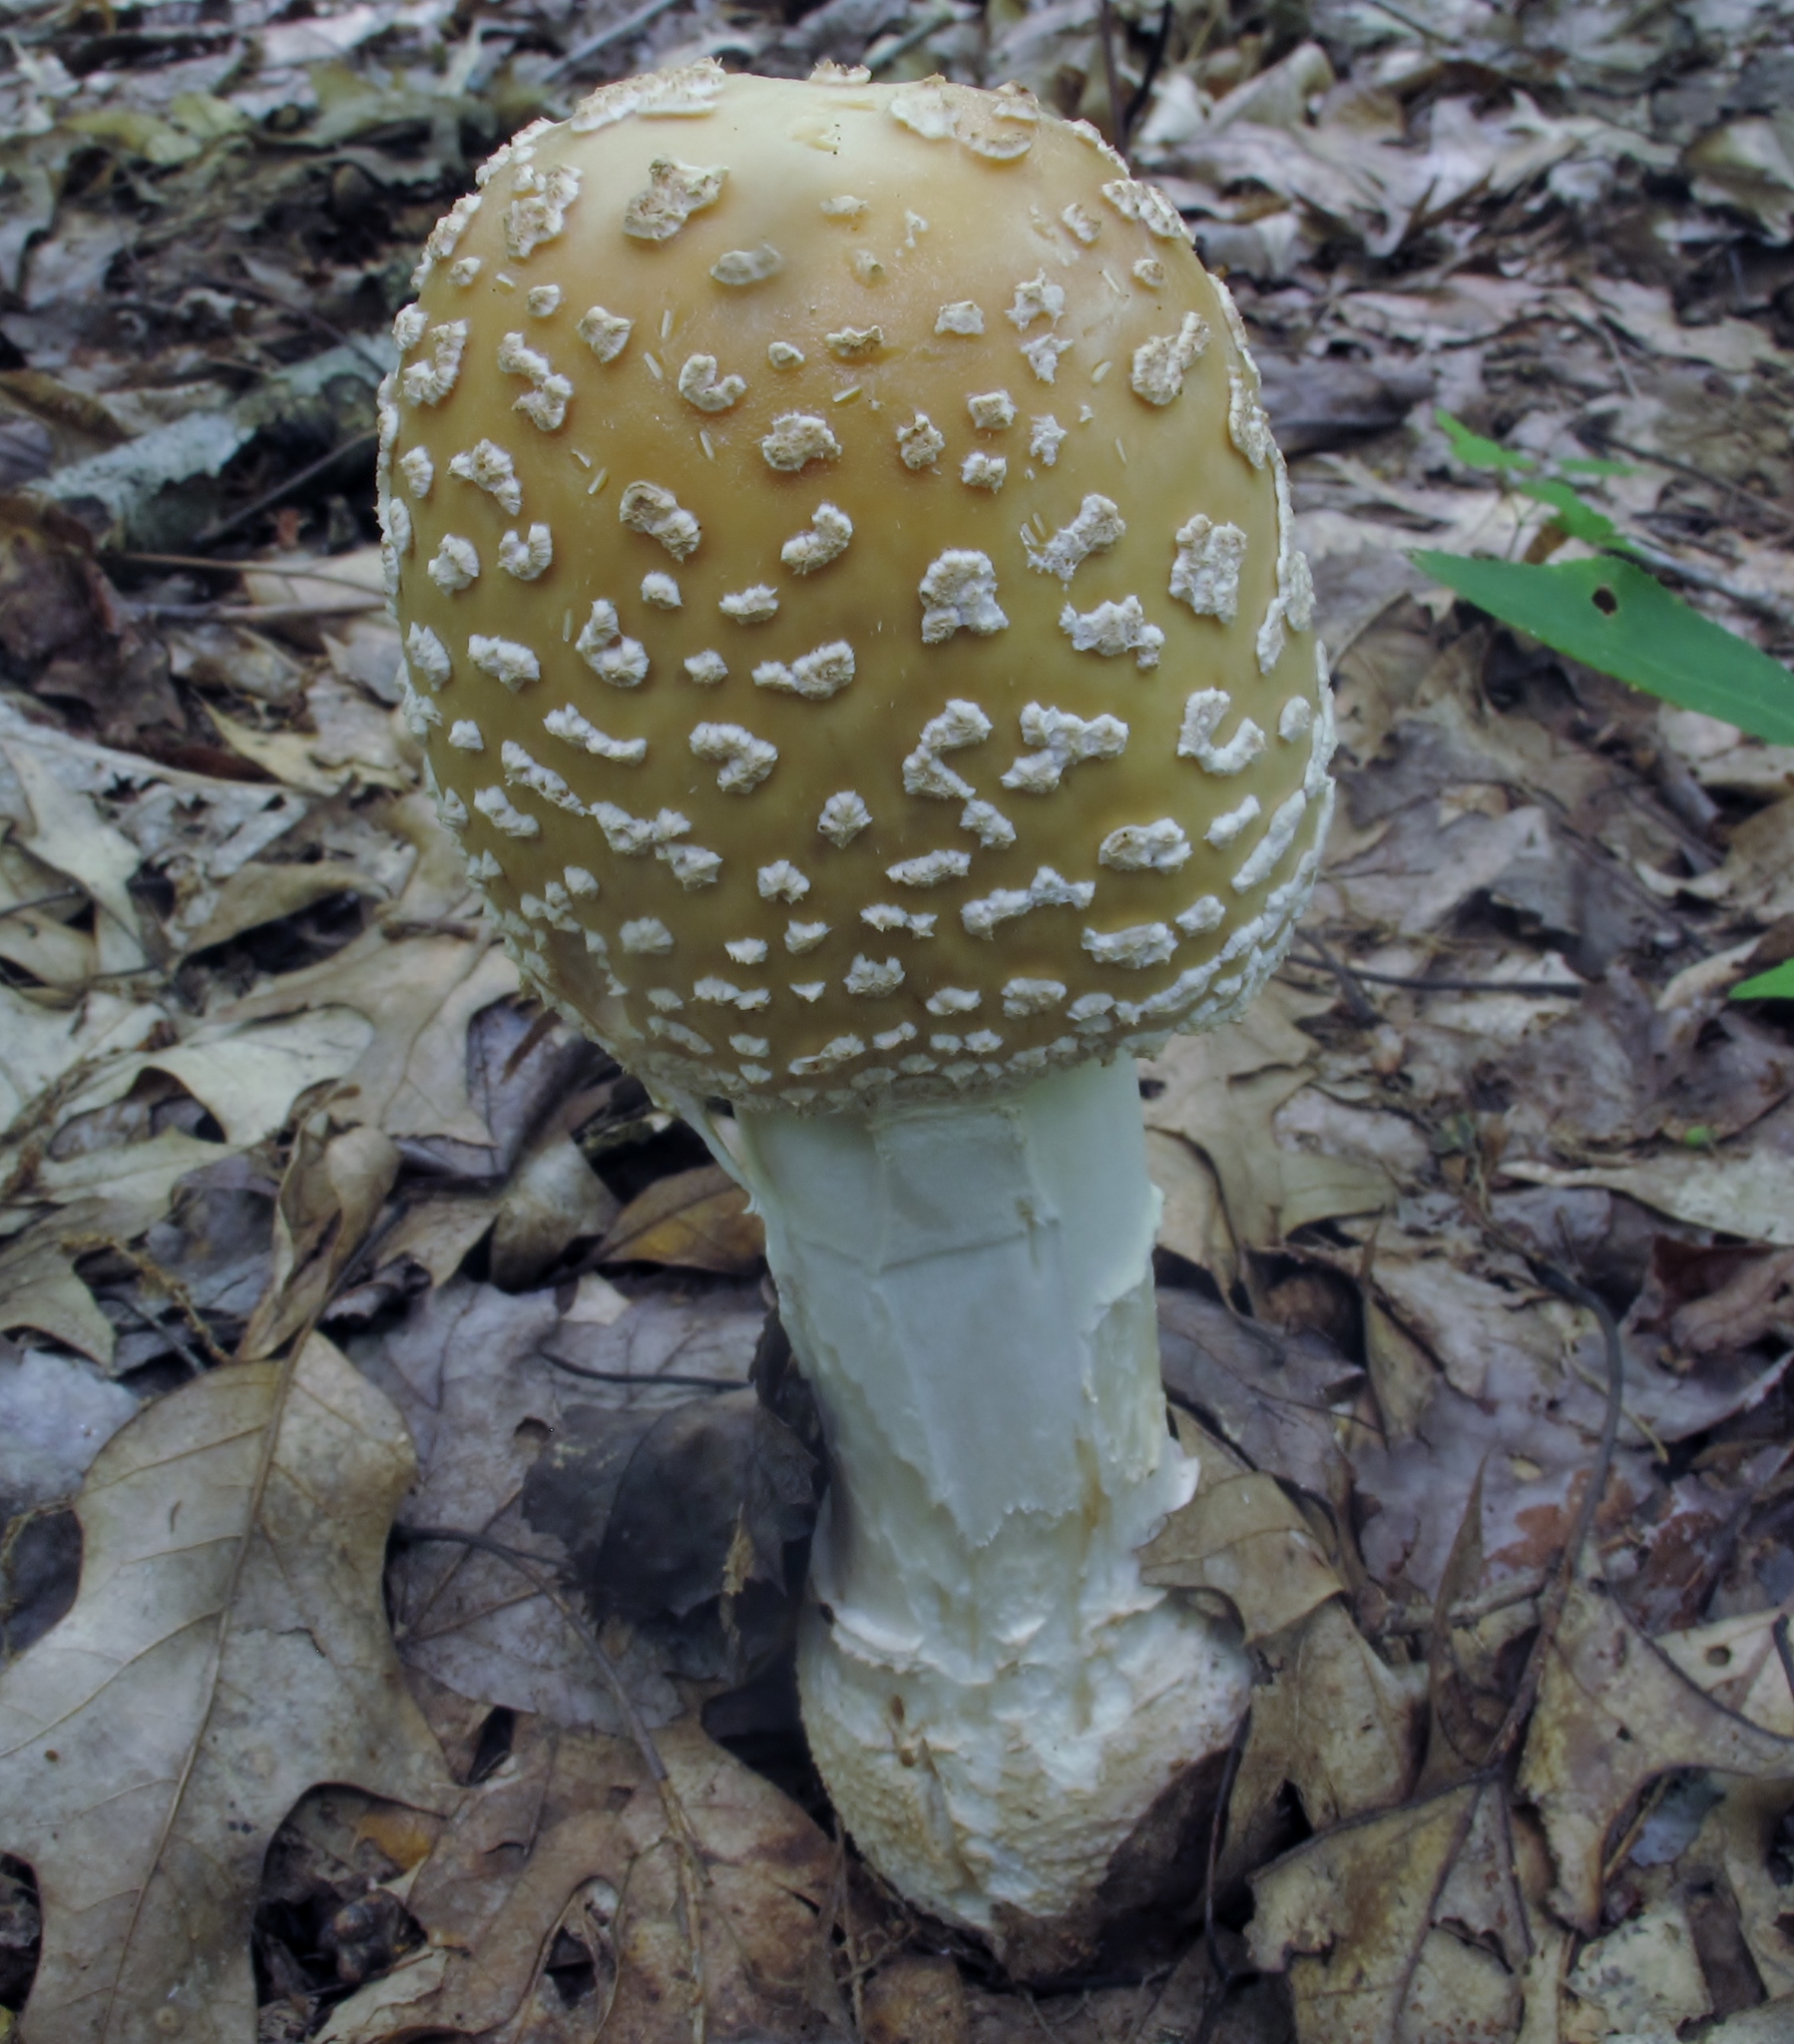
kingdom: Fungi
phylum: Basidiomycota
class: Agaricomycetes
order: Agaricales
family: Amanitaceae
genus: Amanita
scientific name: Amanita velatipes
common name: Great funnel-veil amanita
